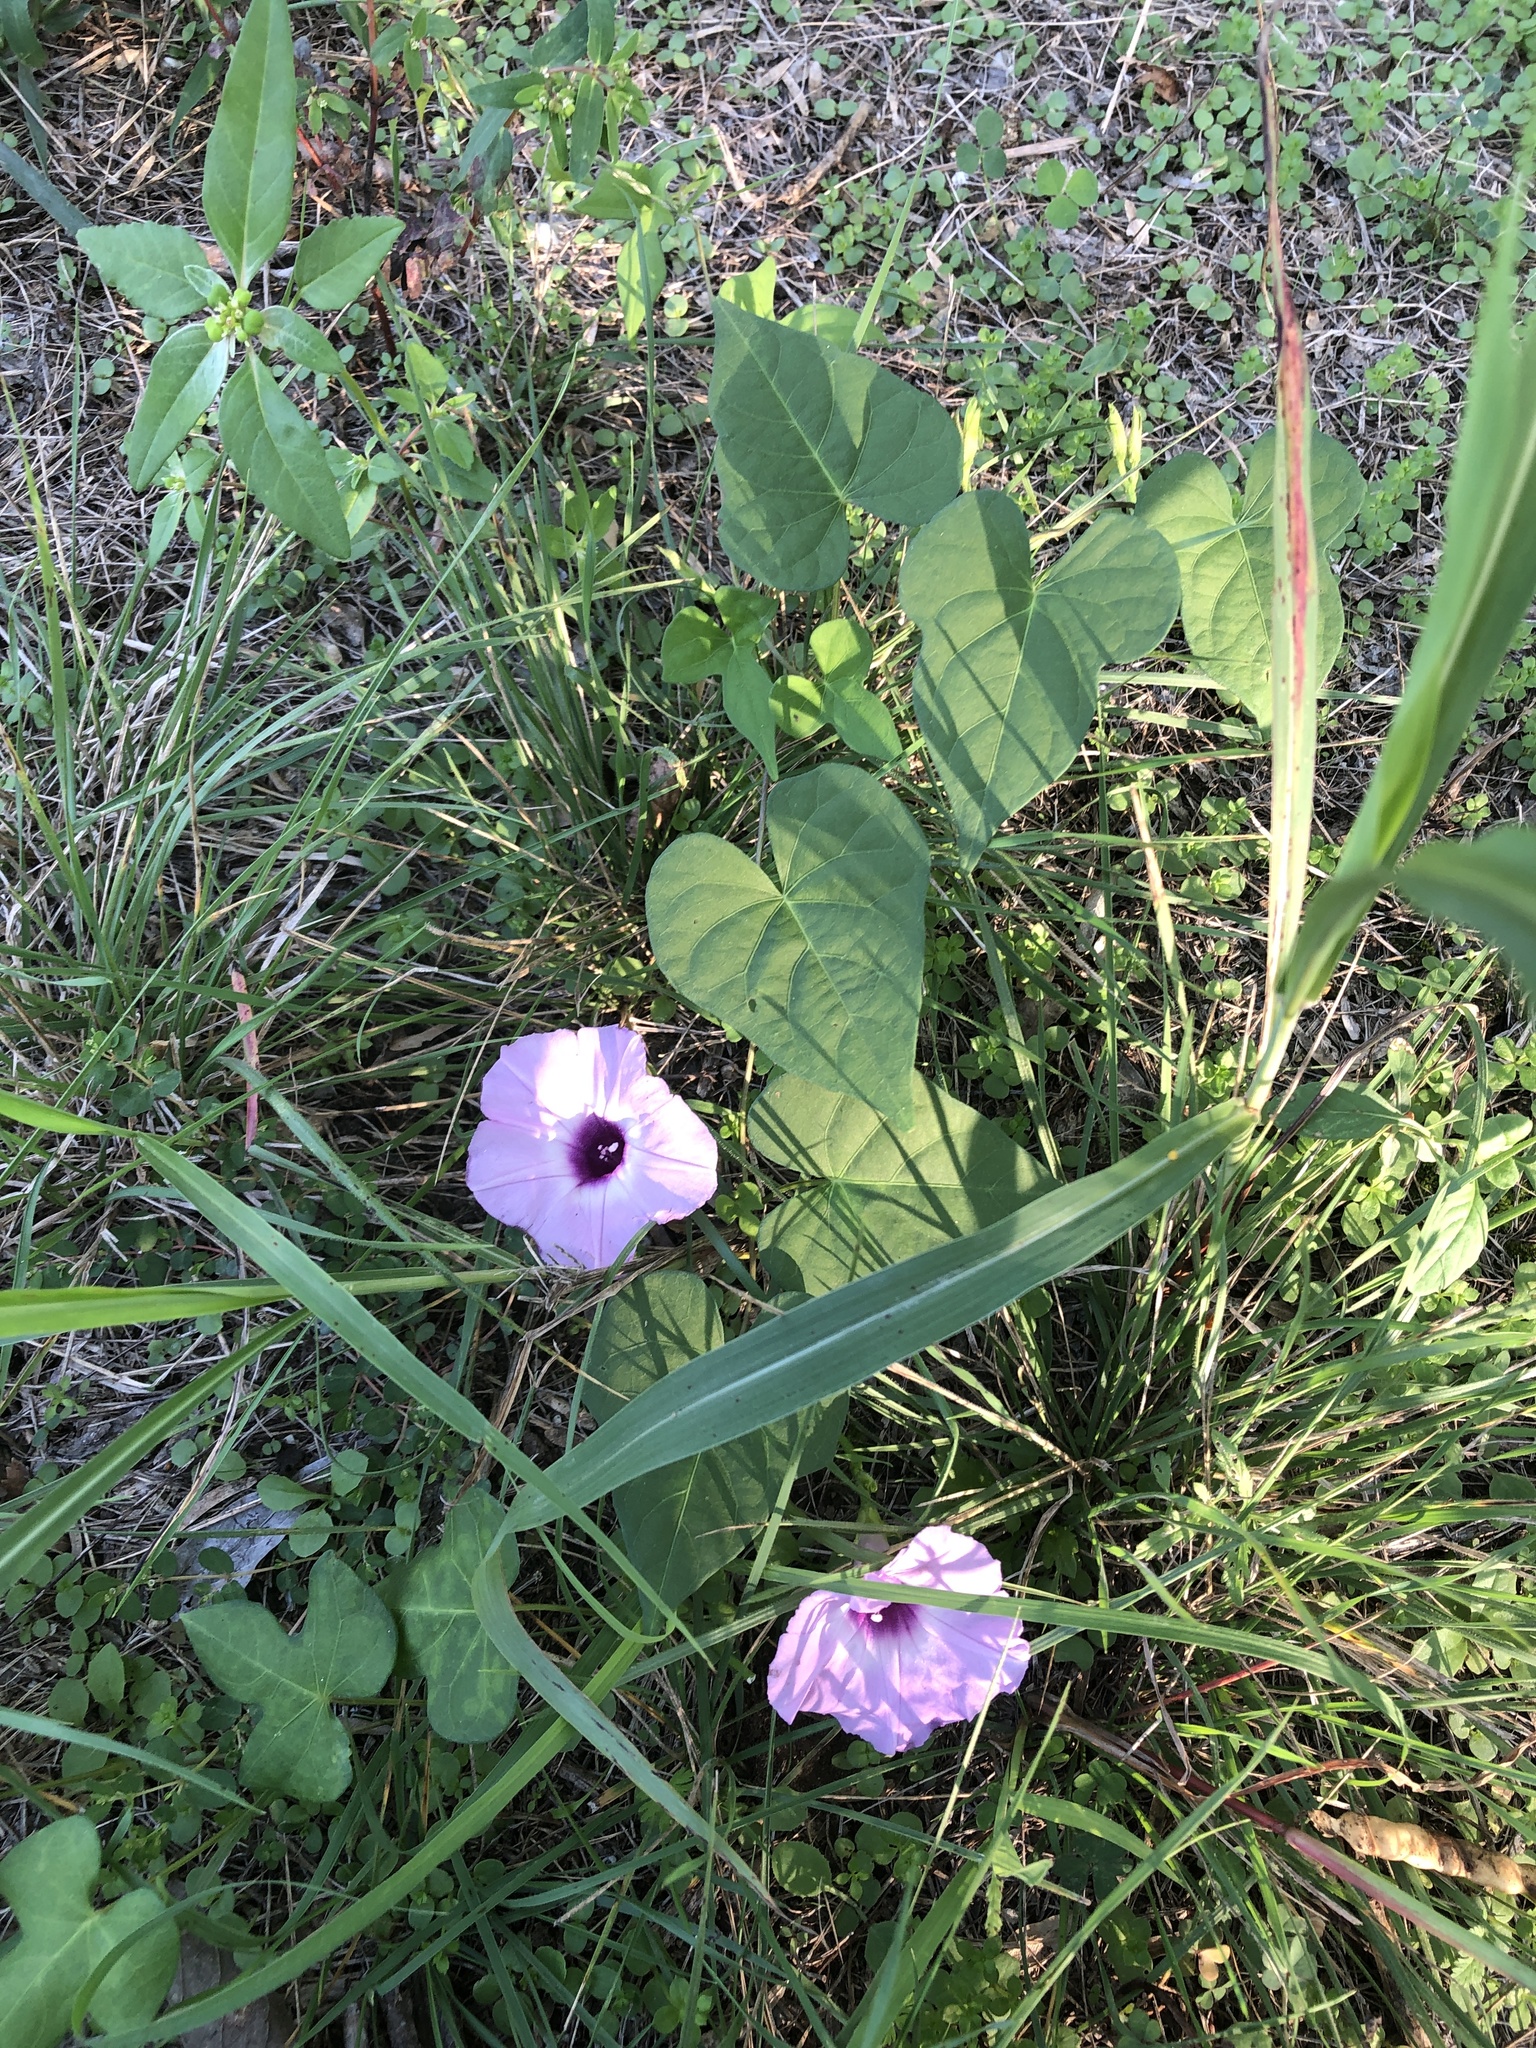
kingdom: Plantae
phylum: Tracheophyta
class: Magnoliopsida
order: Solanales
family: Convolvulaceae
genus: Ipomoea
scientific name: Ipomoea cordatotriloba
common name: Cotton morning glory
